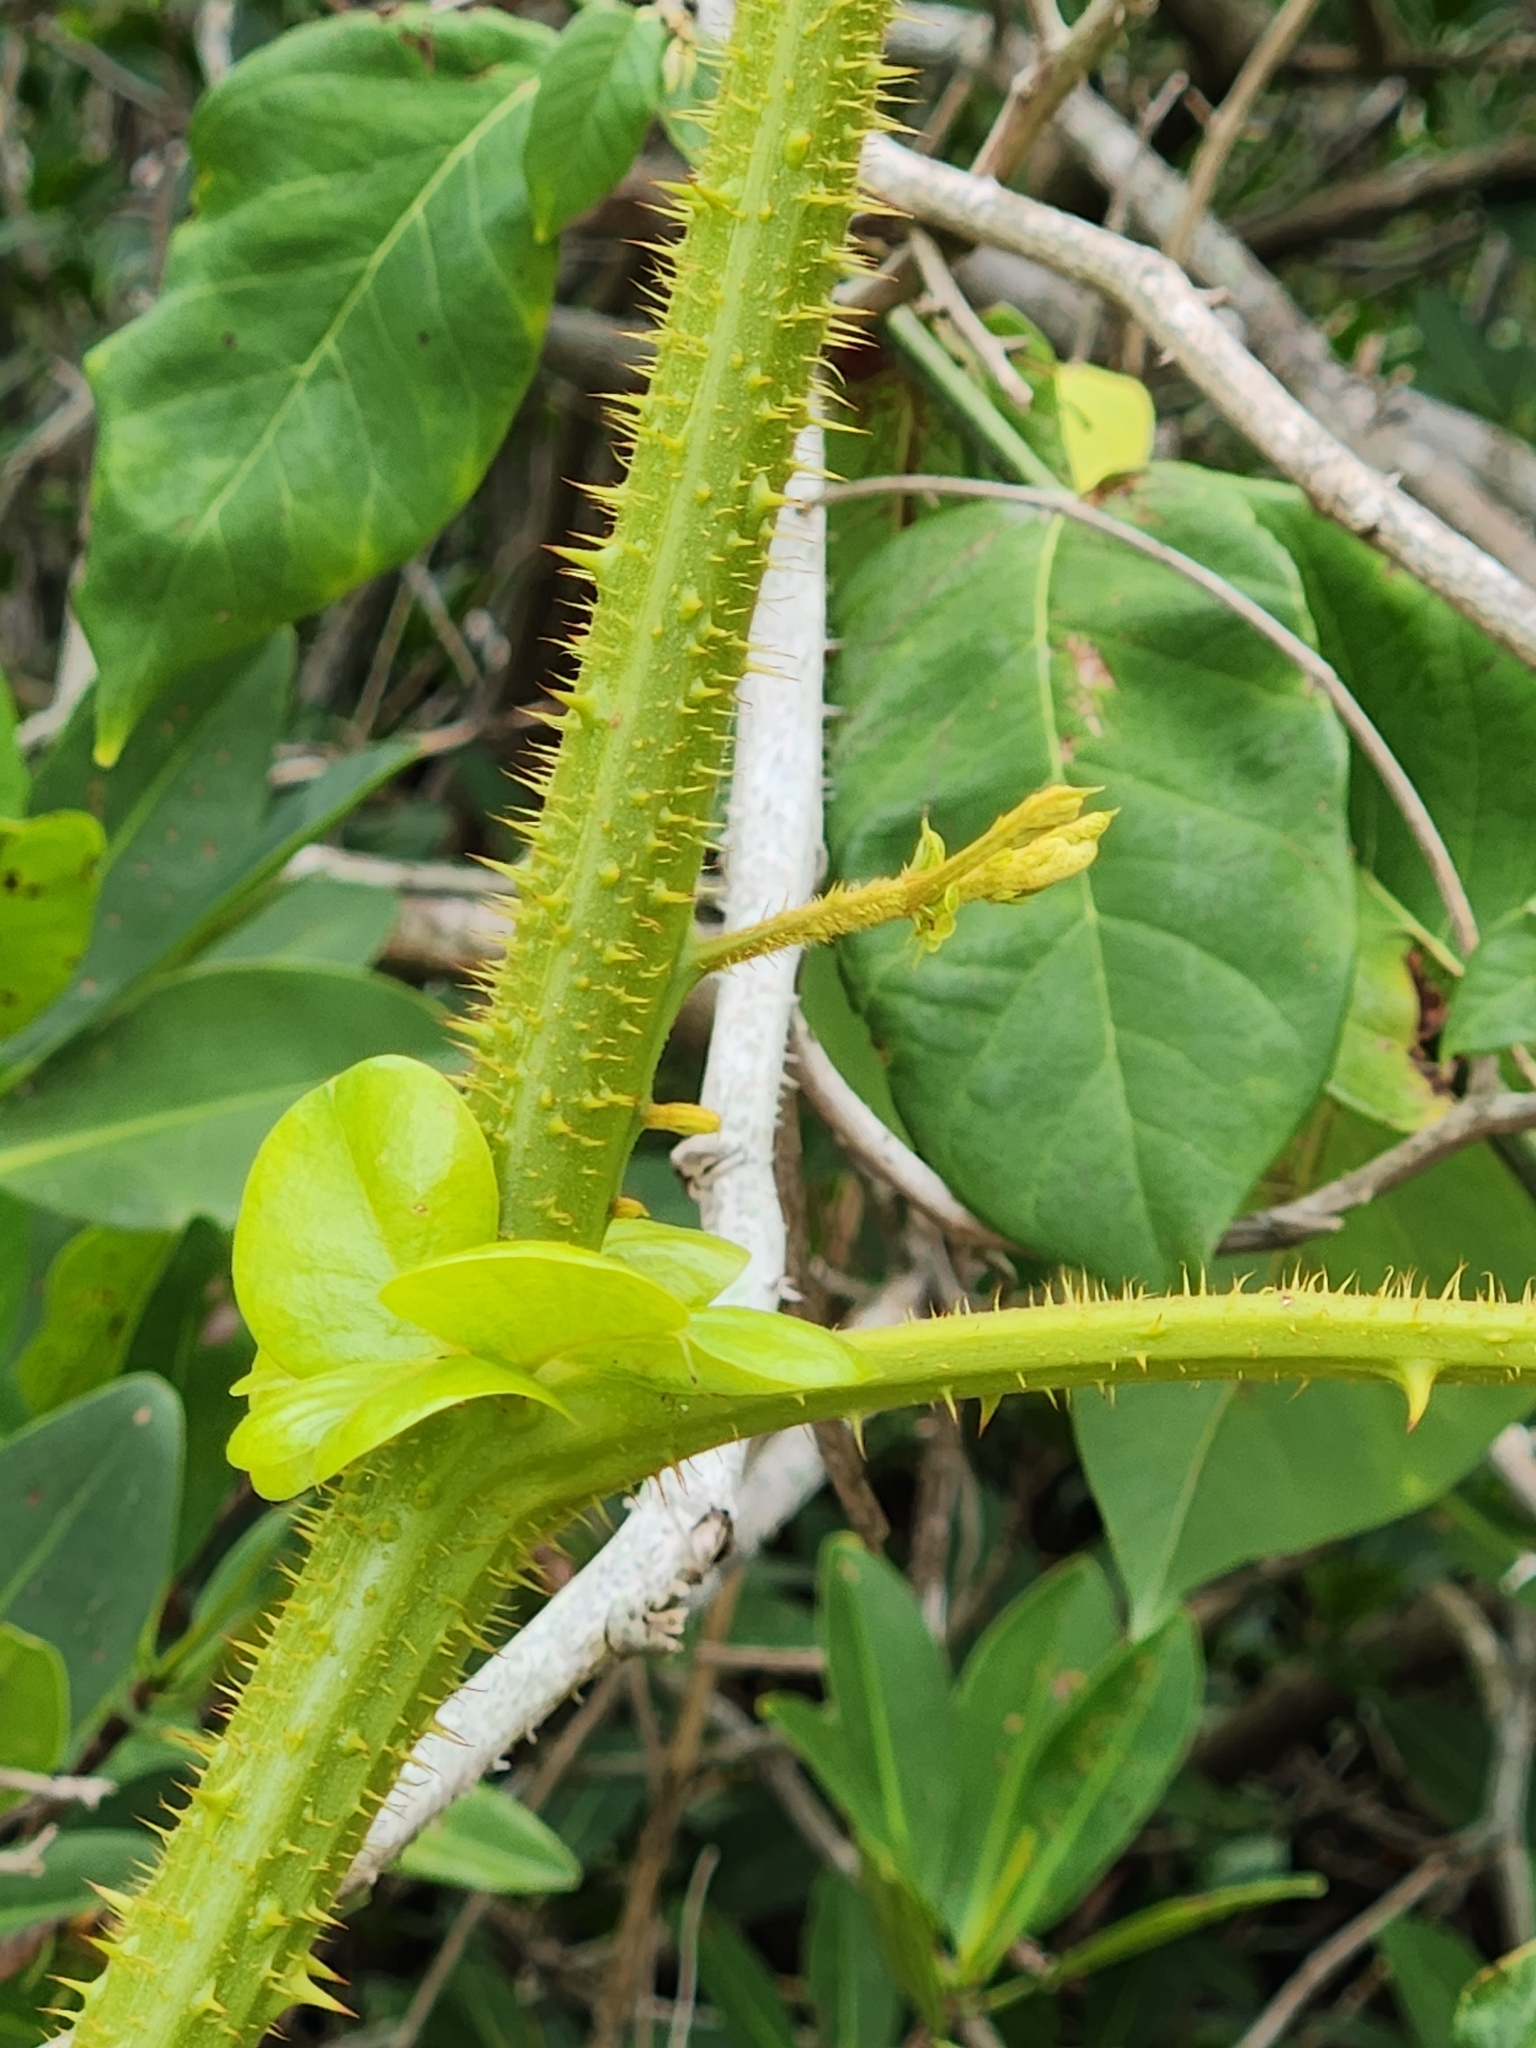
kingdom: Plantae
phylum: Tracheophyta
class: Magnoliopsida
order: Fabales
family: Fabaceae
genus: Guilandina
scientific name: Guilandina bonduc
